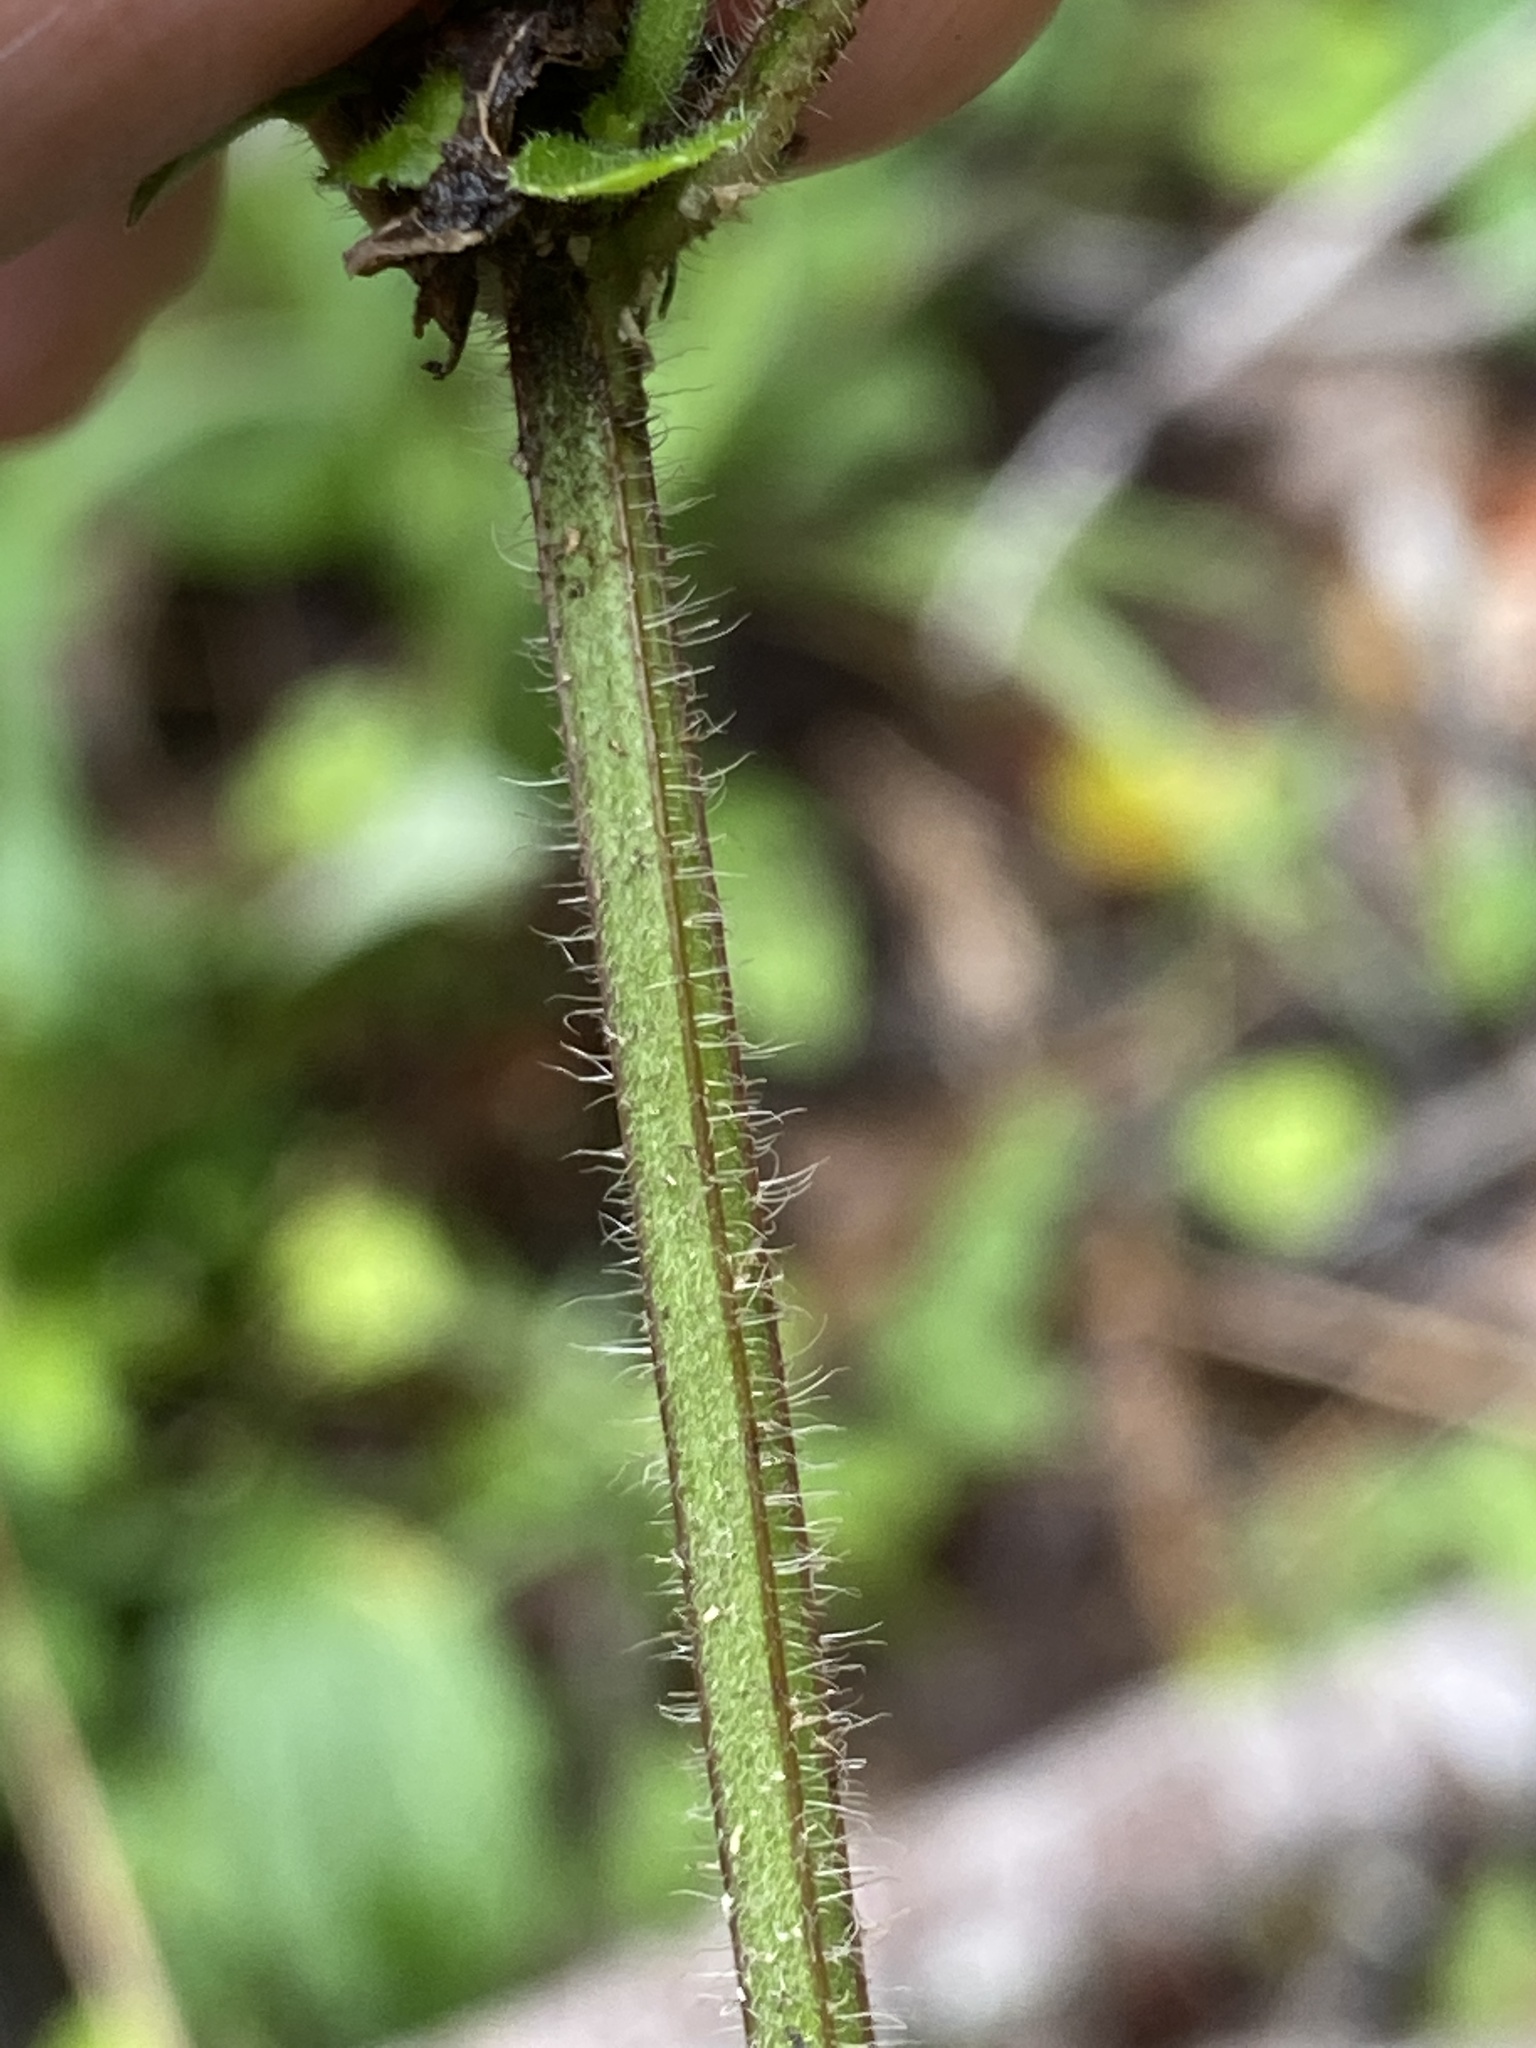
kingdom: Plantae
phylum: Tracheophyta
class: Magnoliopsida
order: Lamiales
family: Lamiaceae
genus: Scutellaria
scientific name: Scutellaria elliptica
